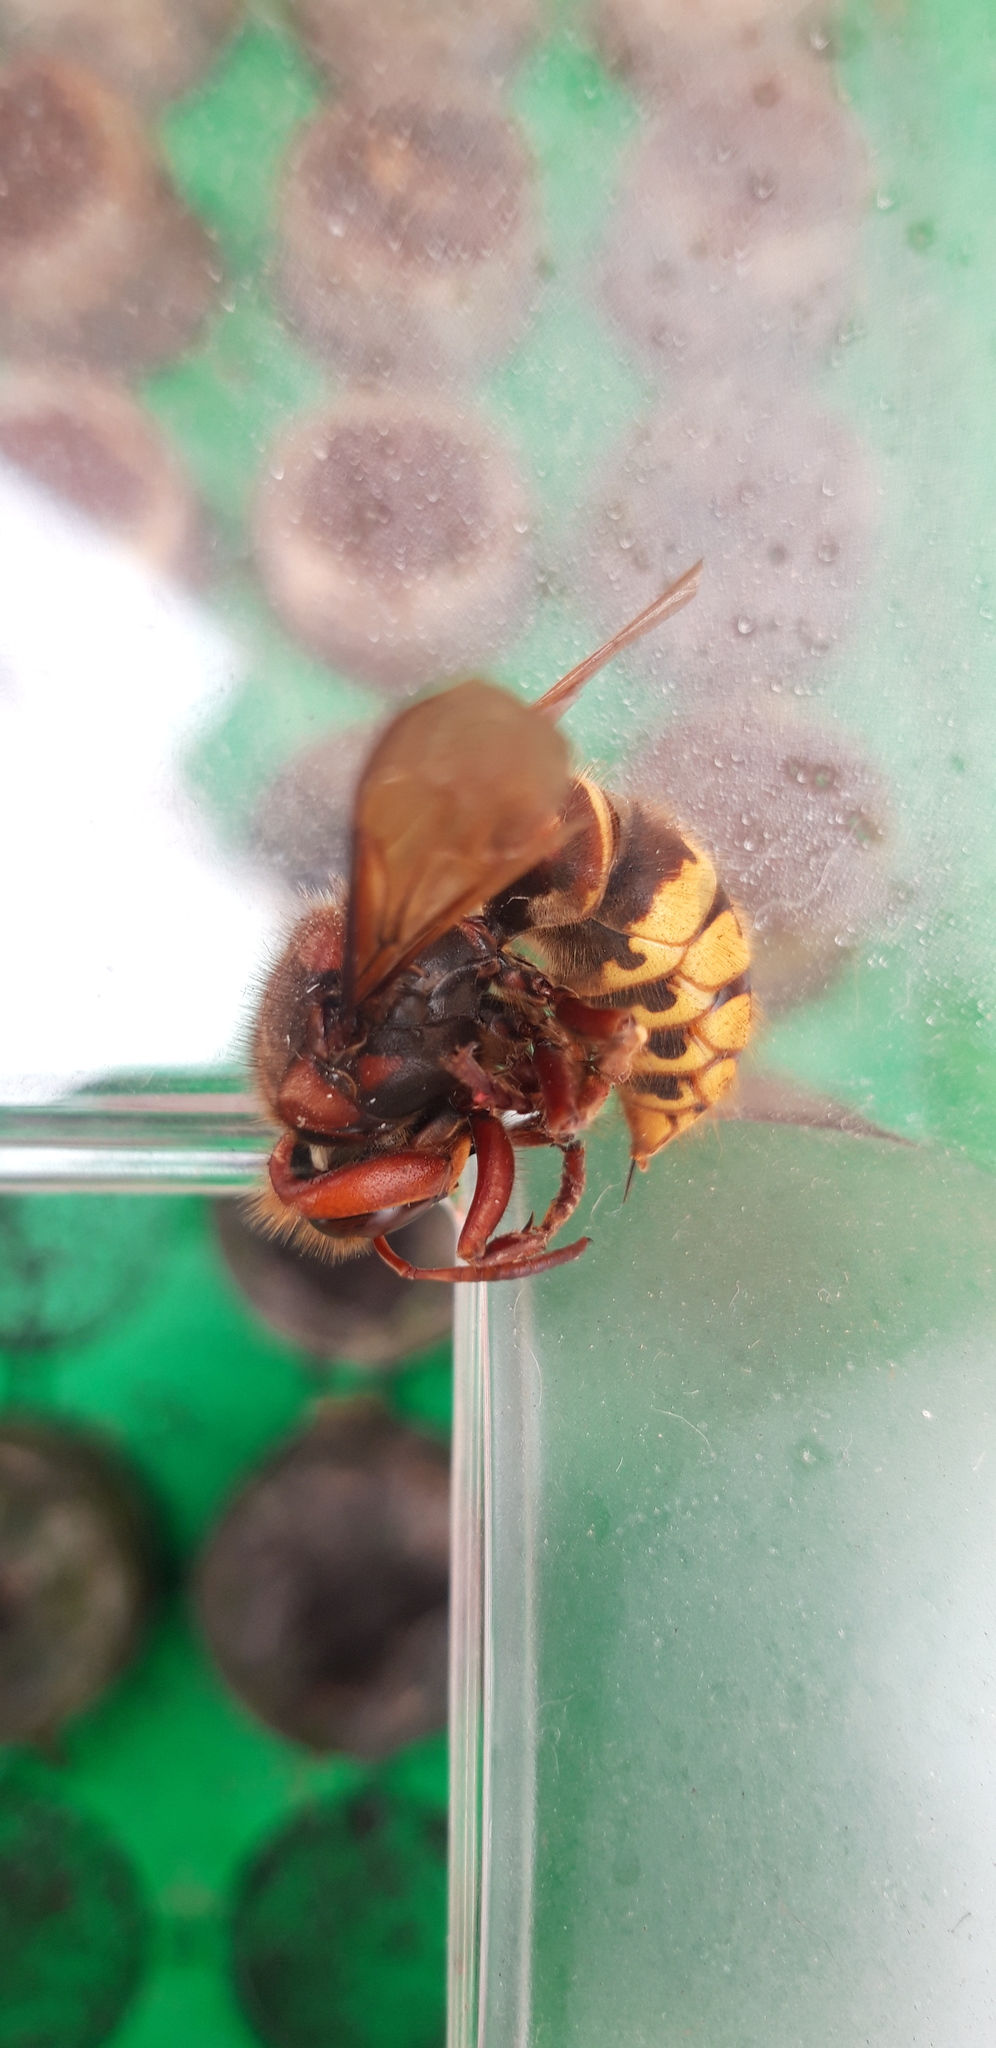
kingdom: Animalia
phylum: Arthropoda
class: Insecta
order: Hymenoptera
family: Vespidae
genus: Vespa
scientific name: Vespa crabro
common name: Hornet
